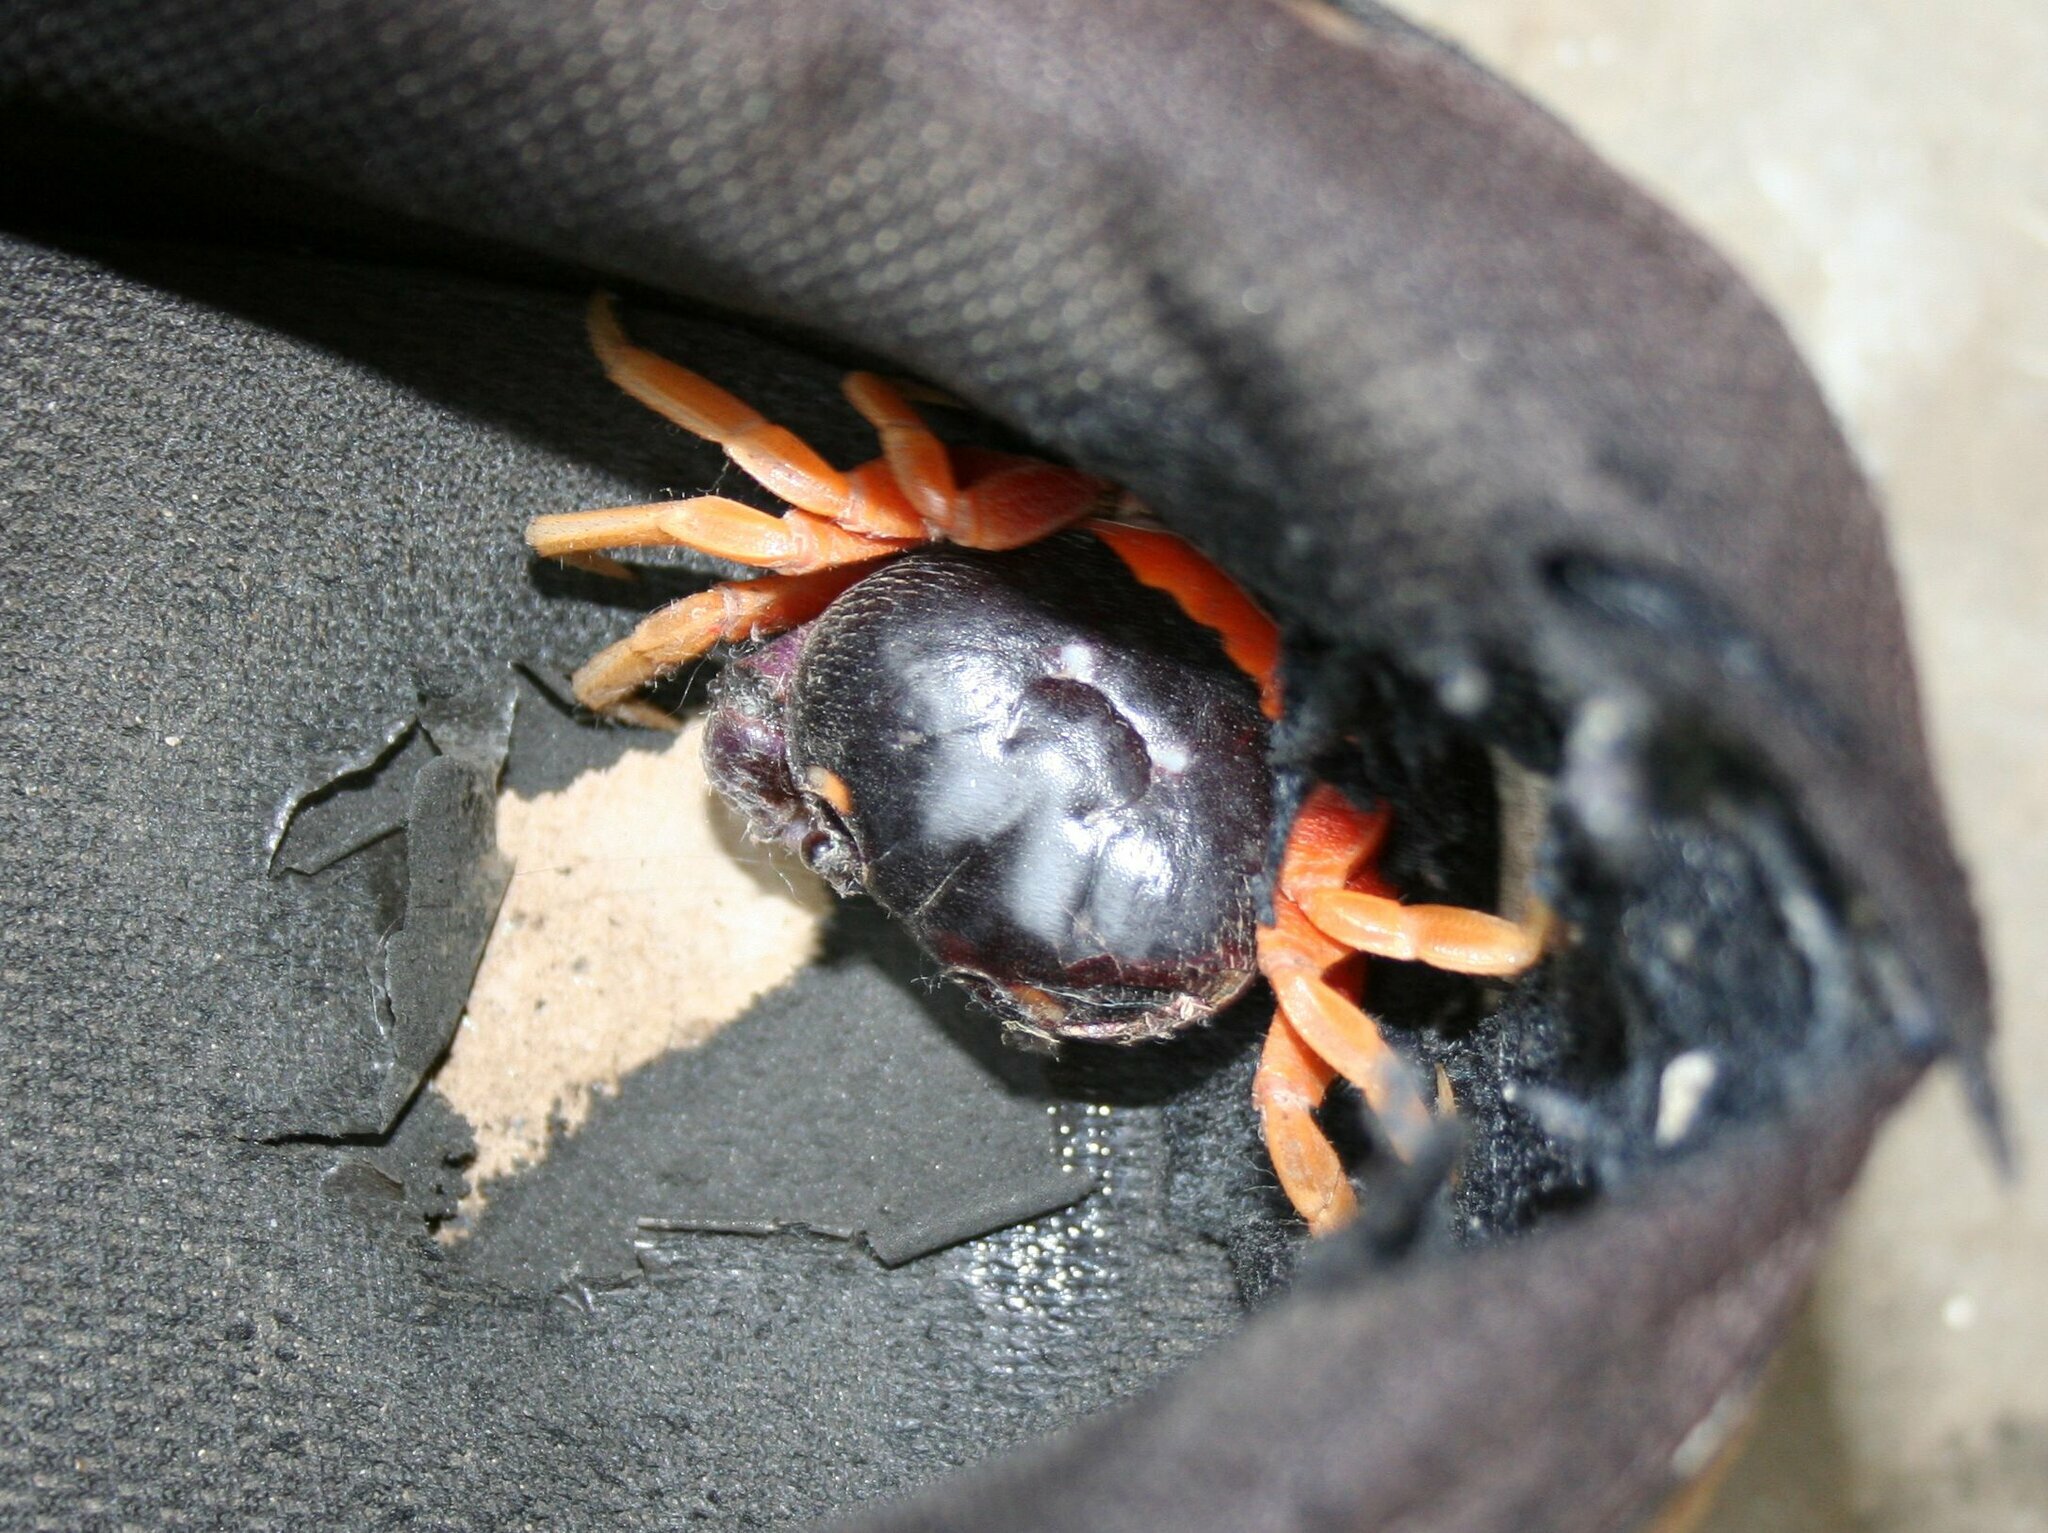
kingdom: Animalia
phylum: Arthropoda
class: Malacostraca
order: Decapoda
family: Gecarcinidae
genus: Gecarcinus
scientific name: Gecarcinus quadratus
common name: Halloween crab
